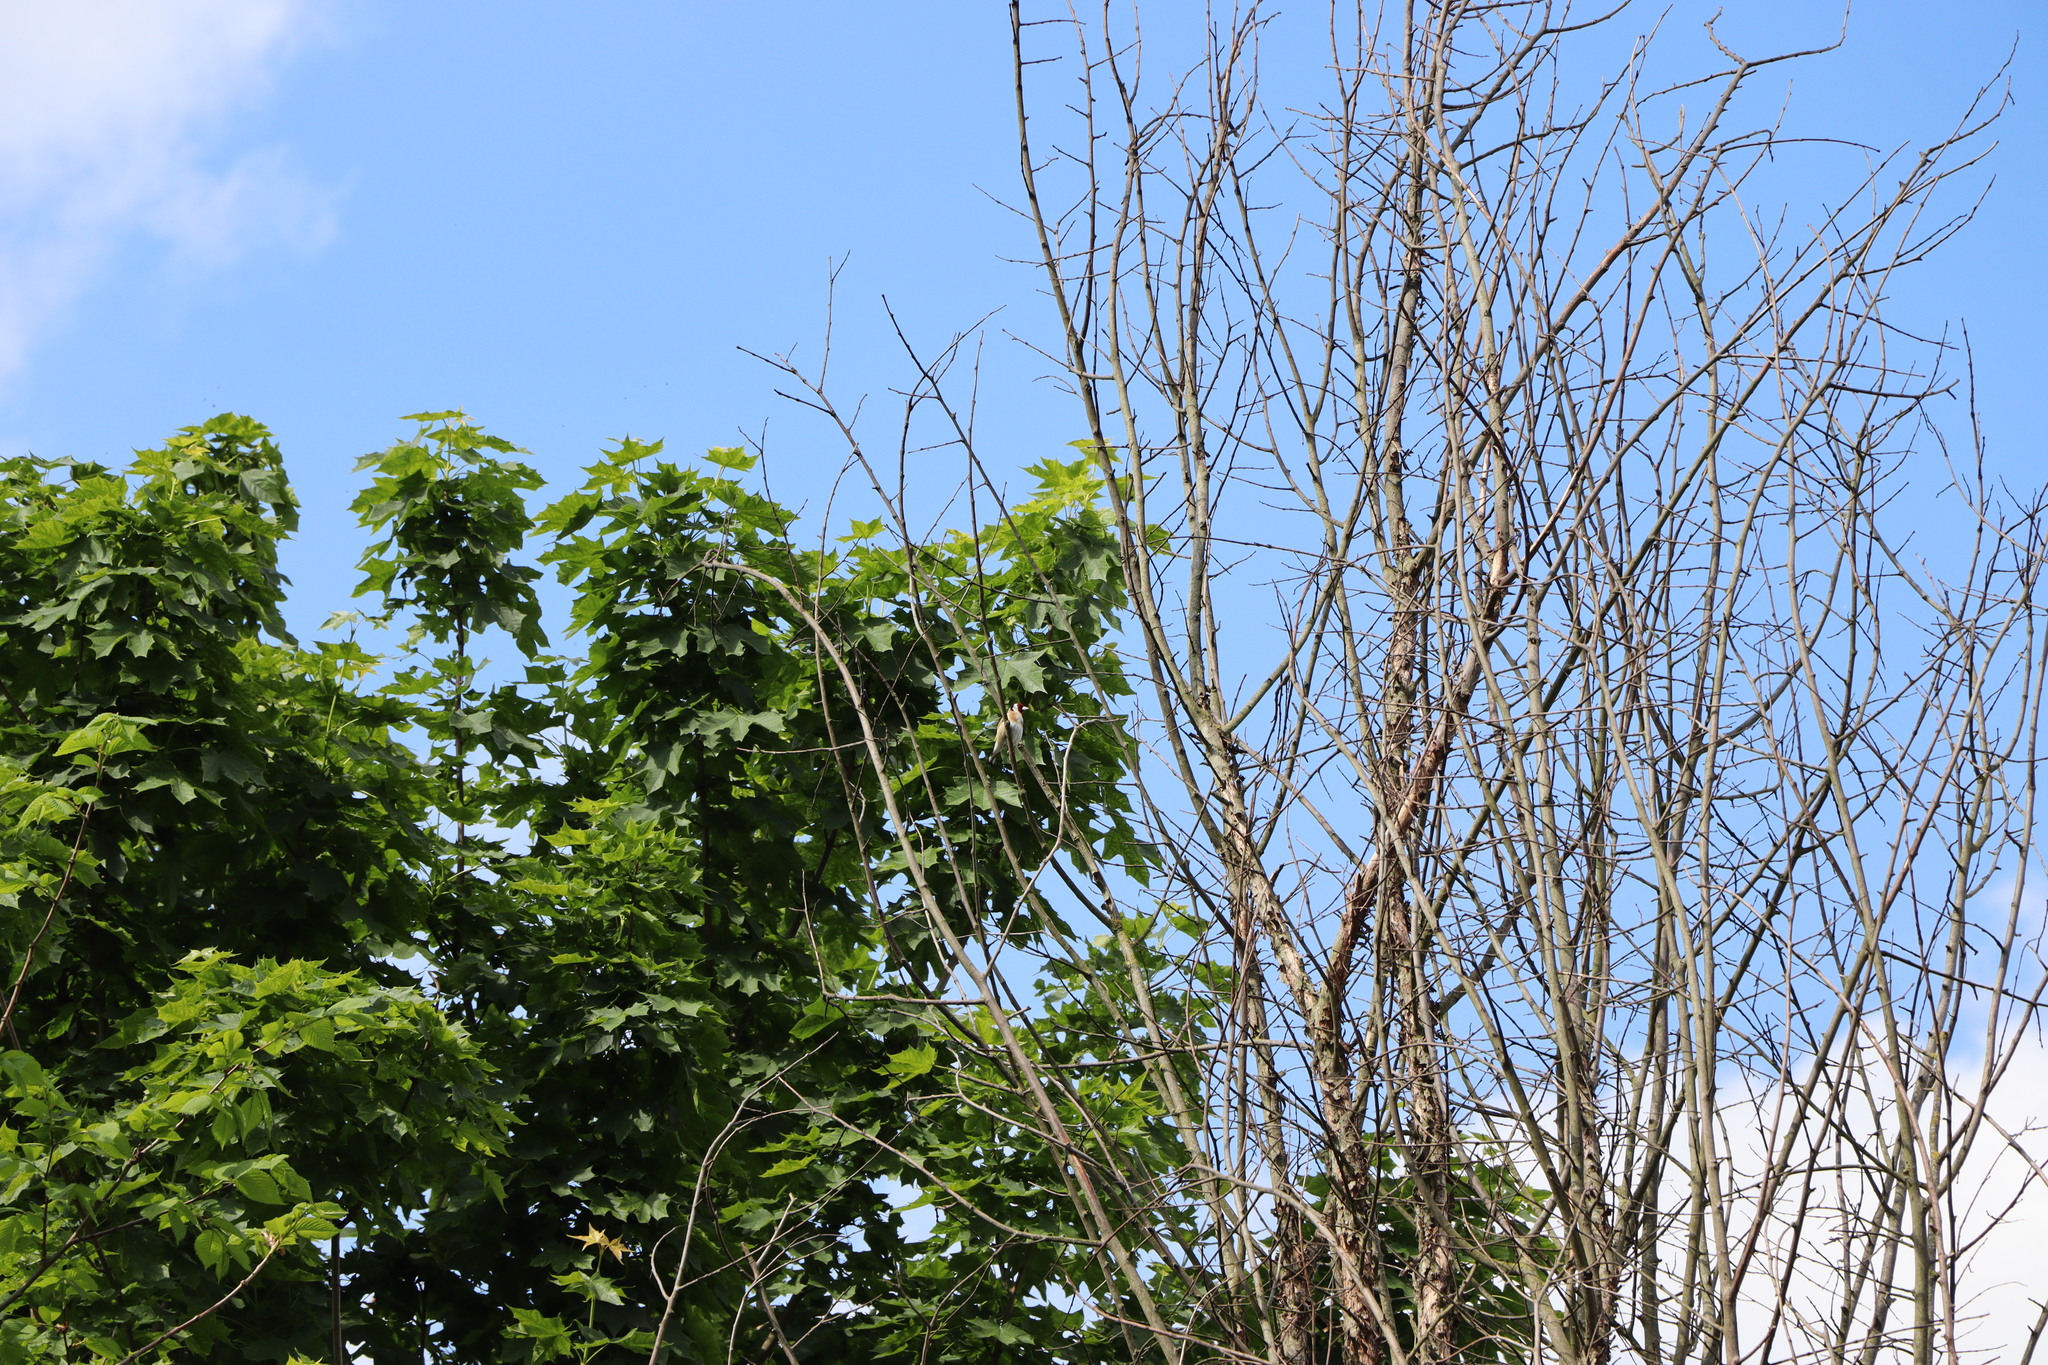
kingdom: Animalia
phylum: Chordata
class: Aves
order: Passeriformes
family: Fringillidae
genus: Carduelis
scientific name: Carduelis carduelis
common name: European goldfinch
